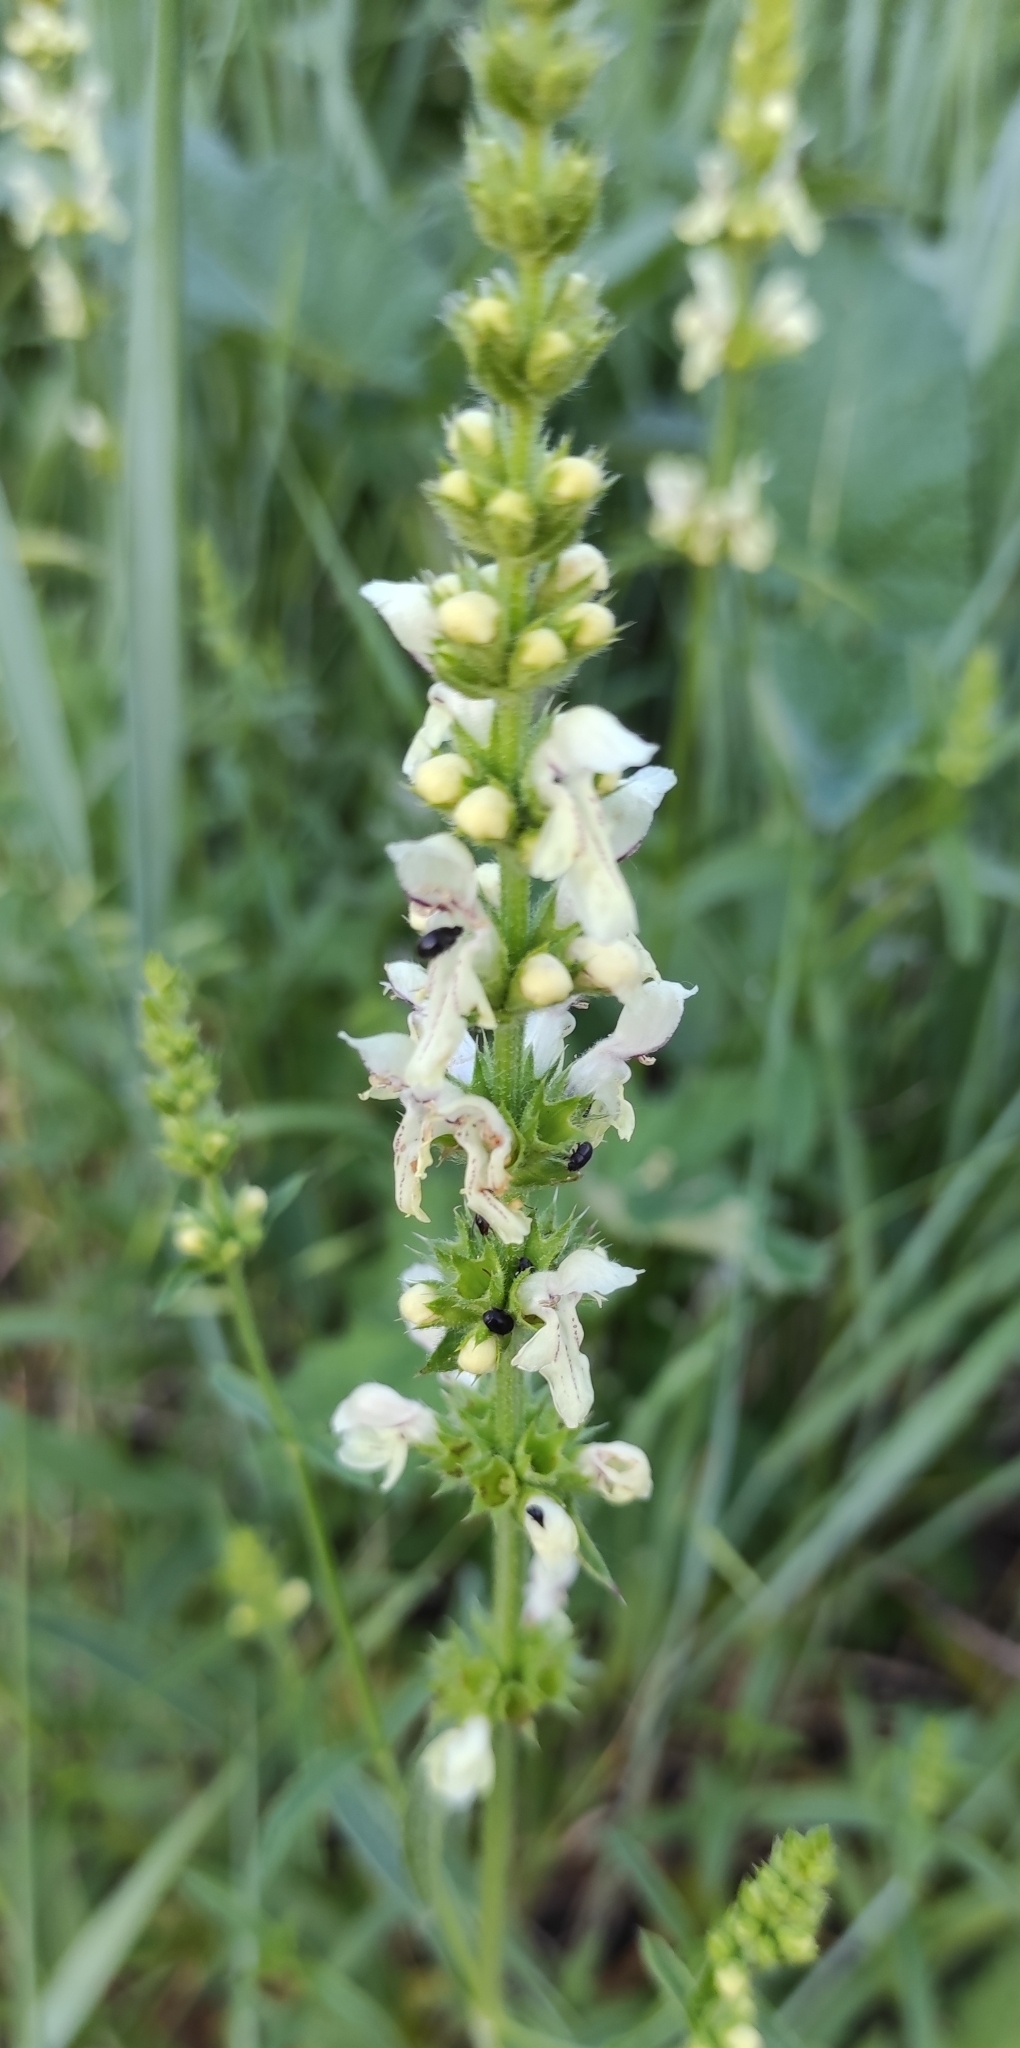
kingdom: Plantae
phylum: Tracheophyta
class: Magnoliopsida
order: Lamiales
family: Lamiaceae
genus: Stachys
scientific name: Stachys recta
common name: Perennial yellow-woundwort
